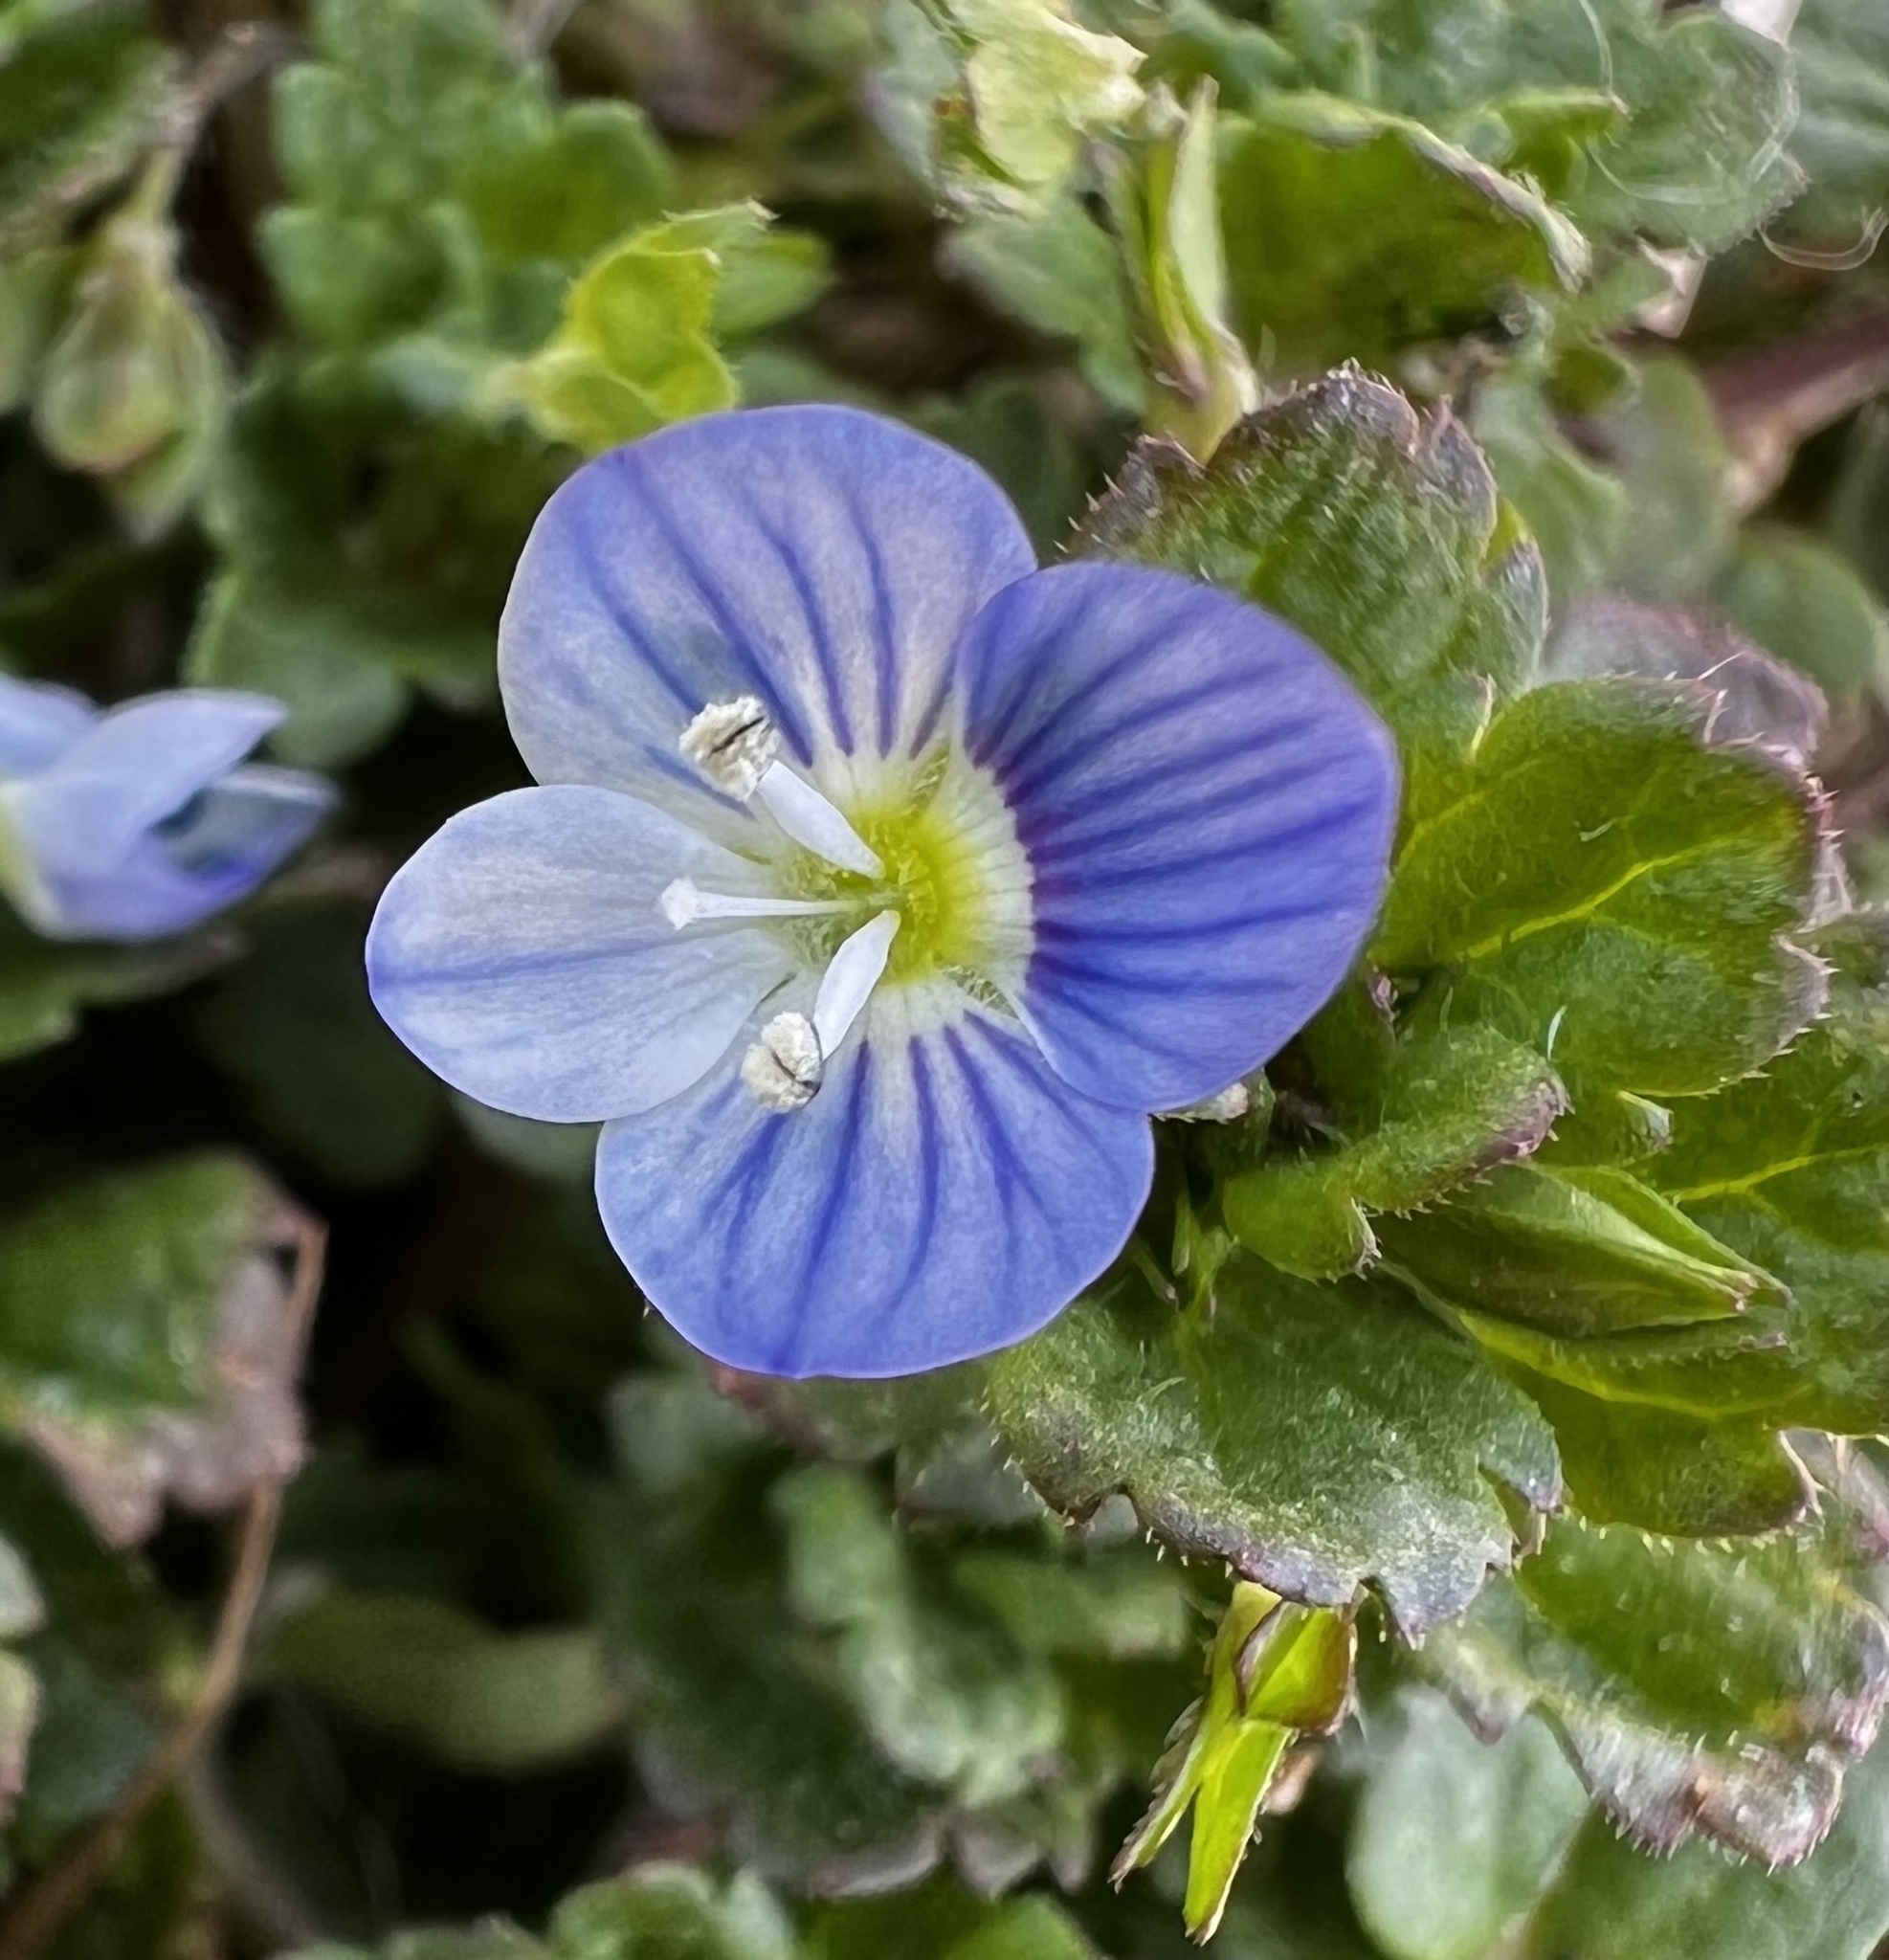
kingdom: Plantae
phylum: Tracheophyta
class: Magnoliopsida
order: Lamiales
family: Plantaginaceae
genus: Veronica
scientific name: Veronica persica
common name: Common field-speedwell
